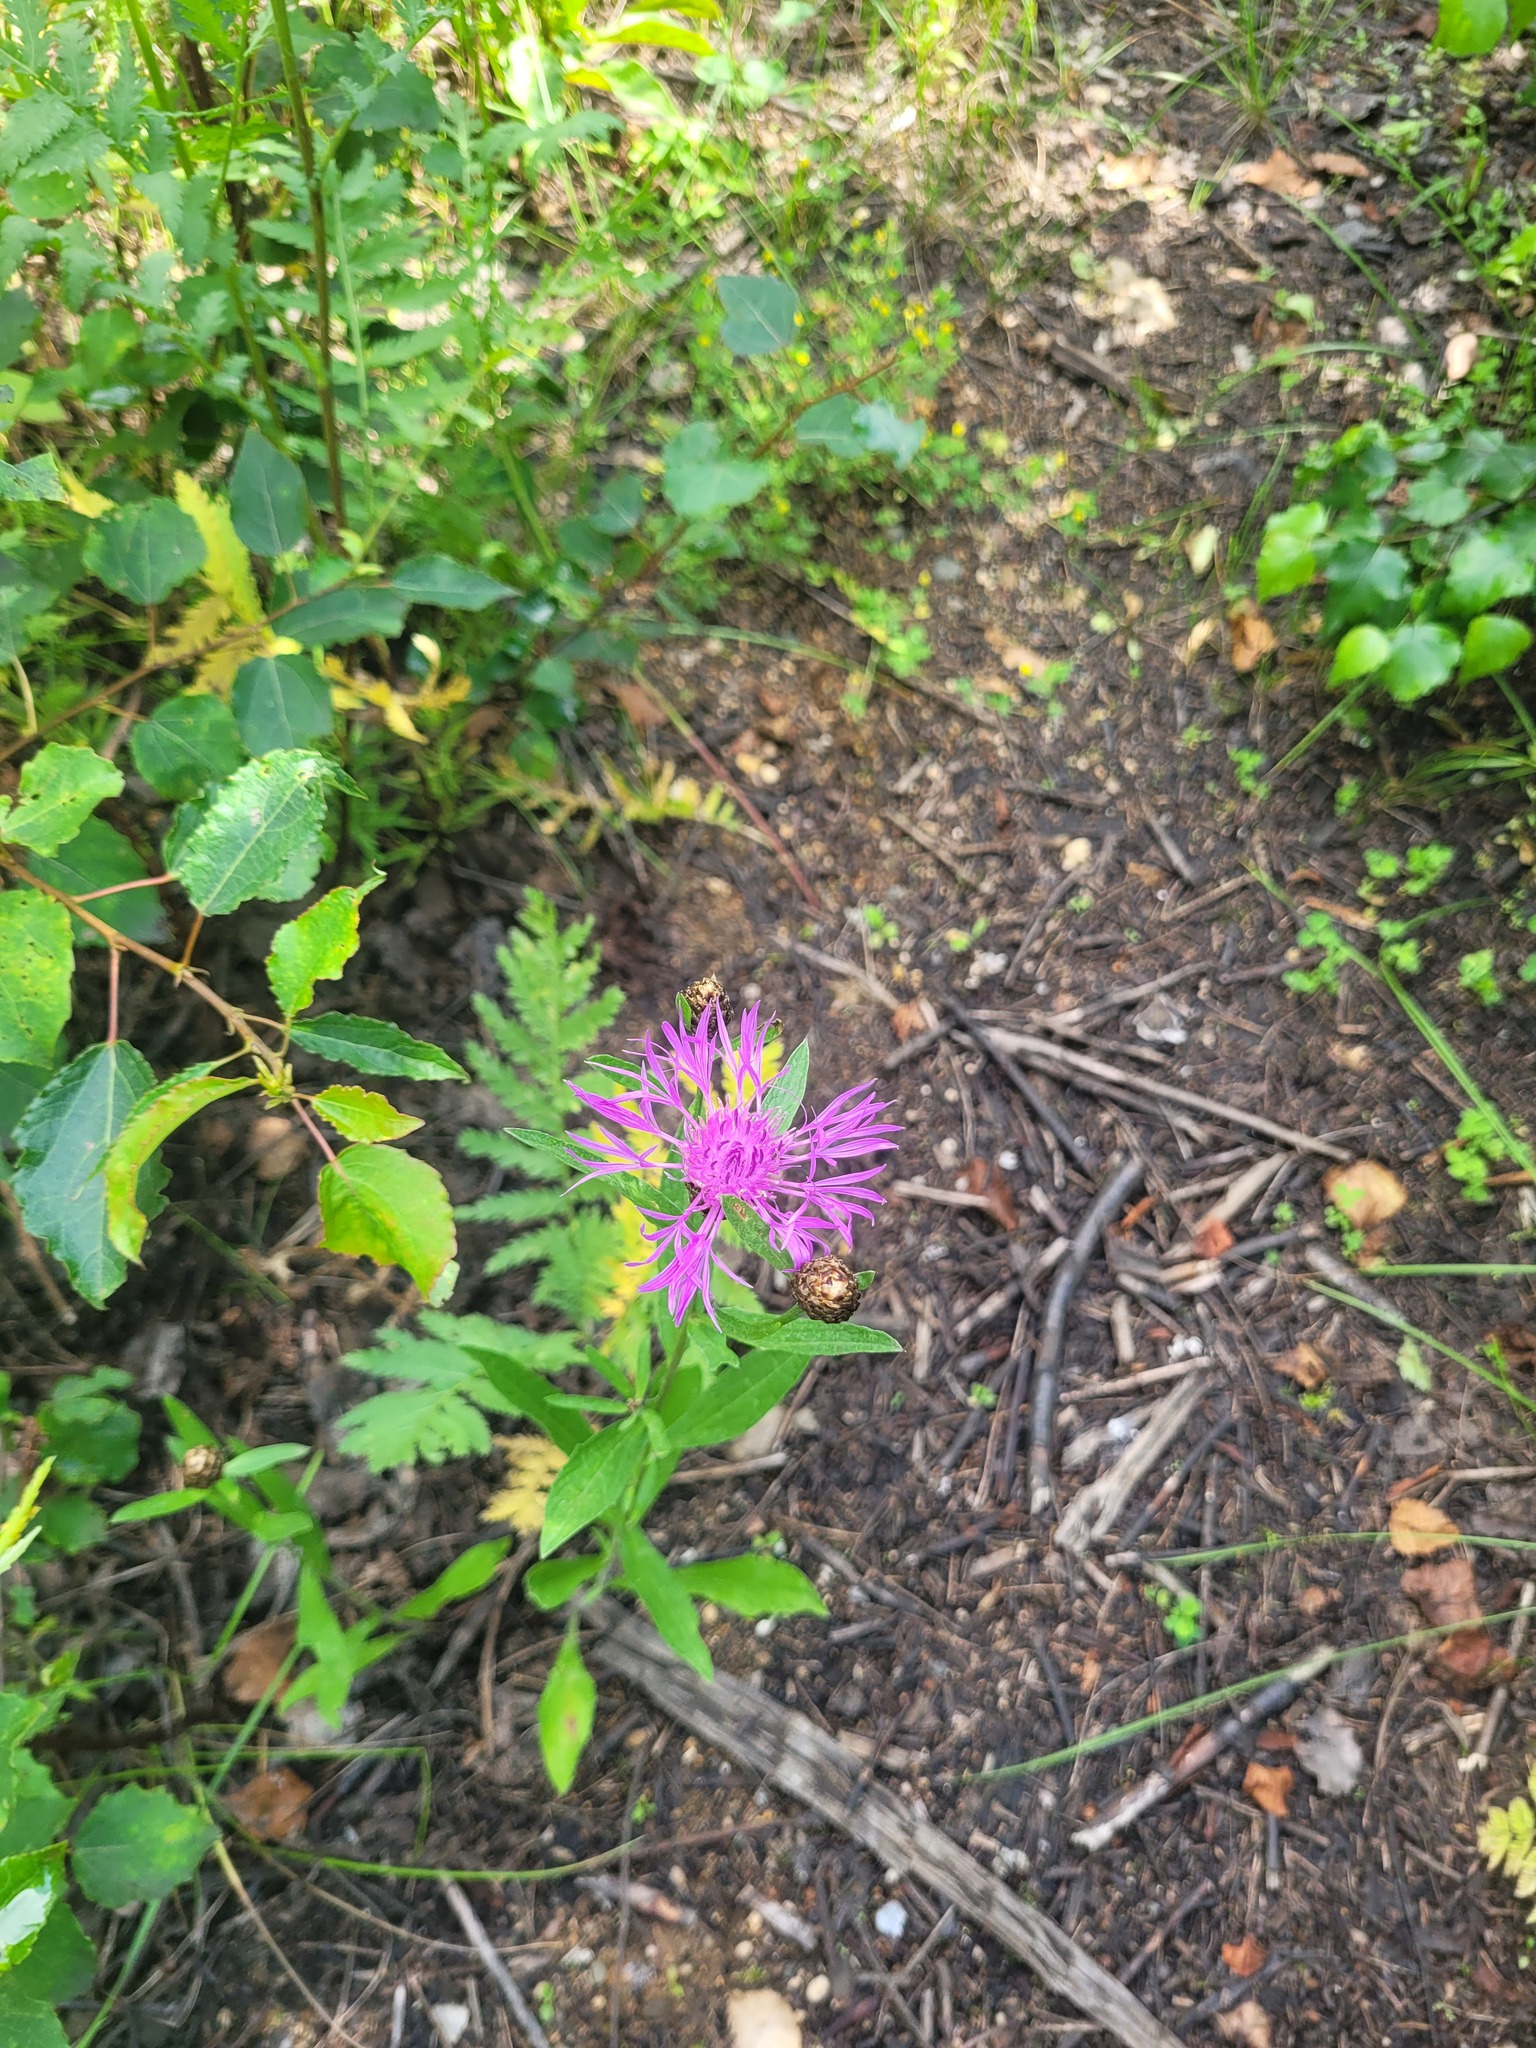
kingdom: Plantae
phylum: Tracheophyta
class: Magnoliopsida
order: Asterales
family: Asteraceae
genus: Centaurea
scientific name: Centaurea jacea
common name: Brown knapweed
